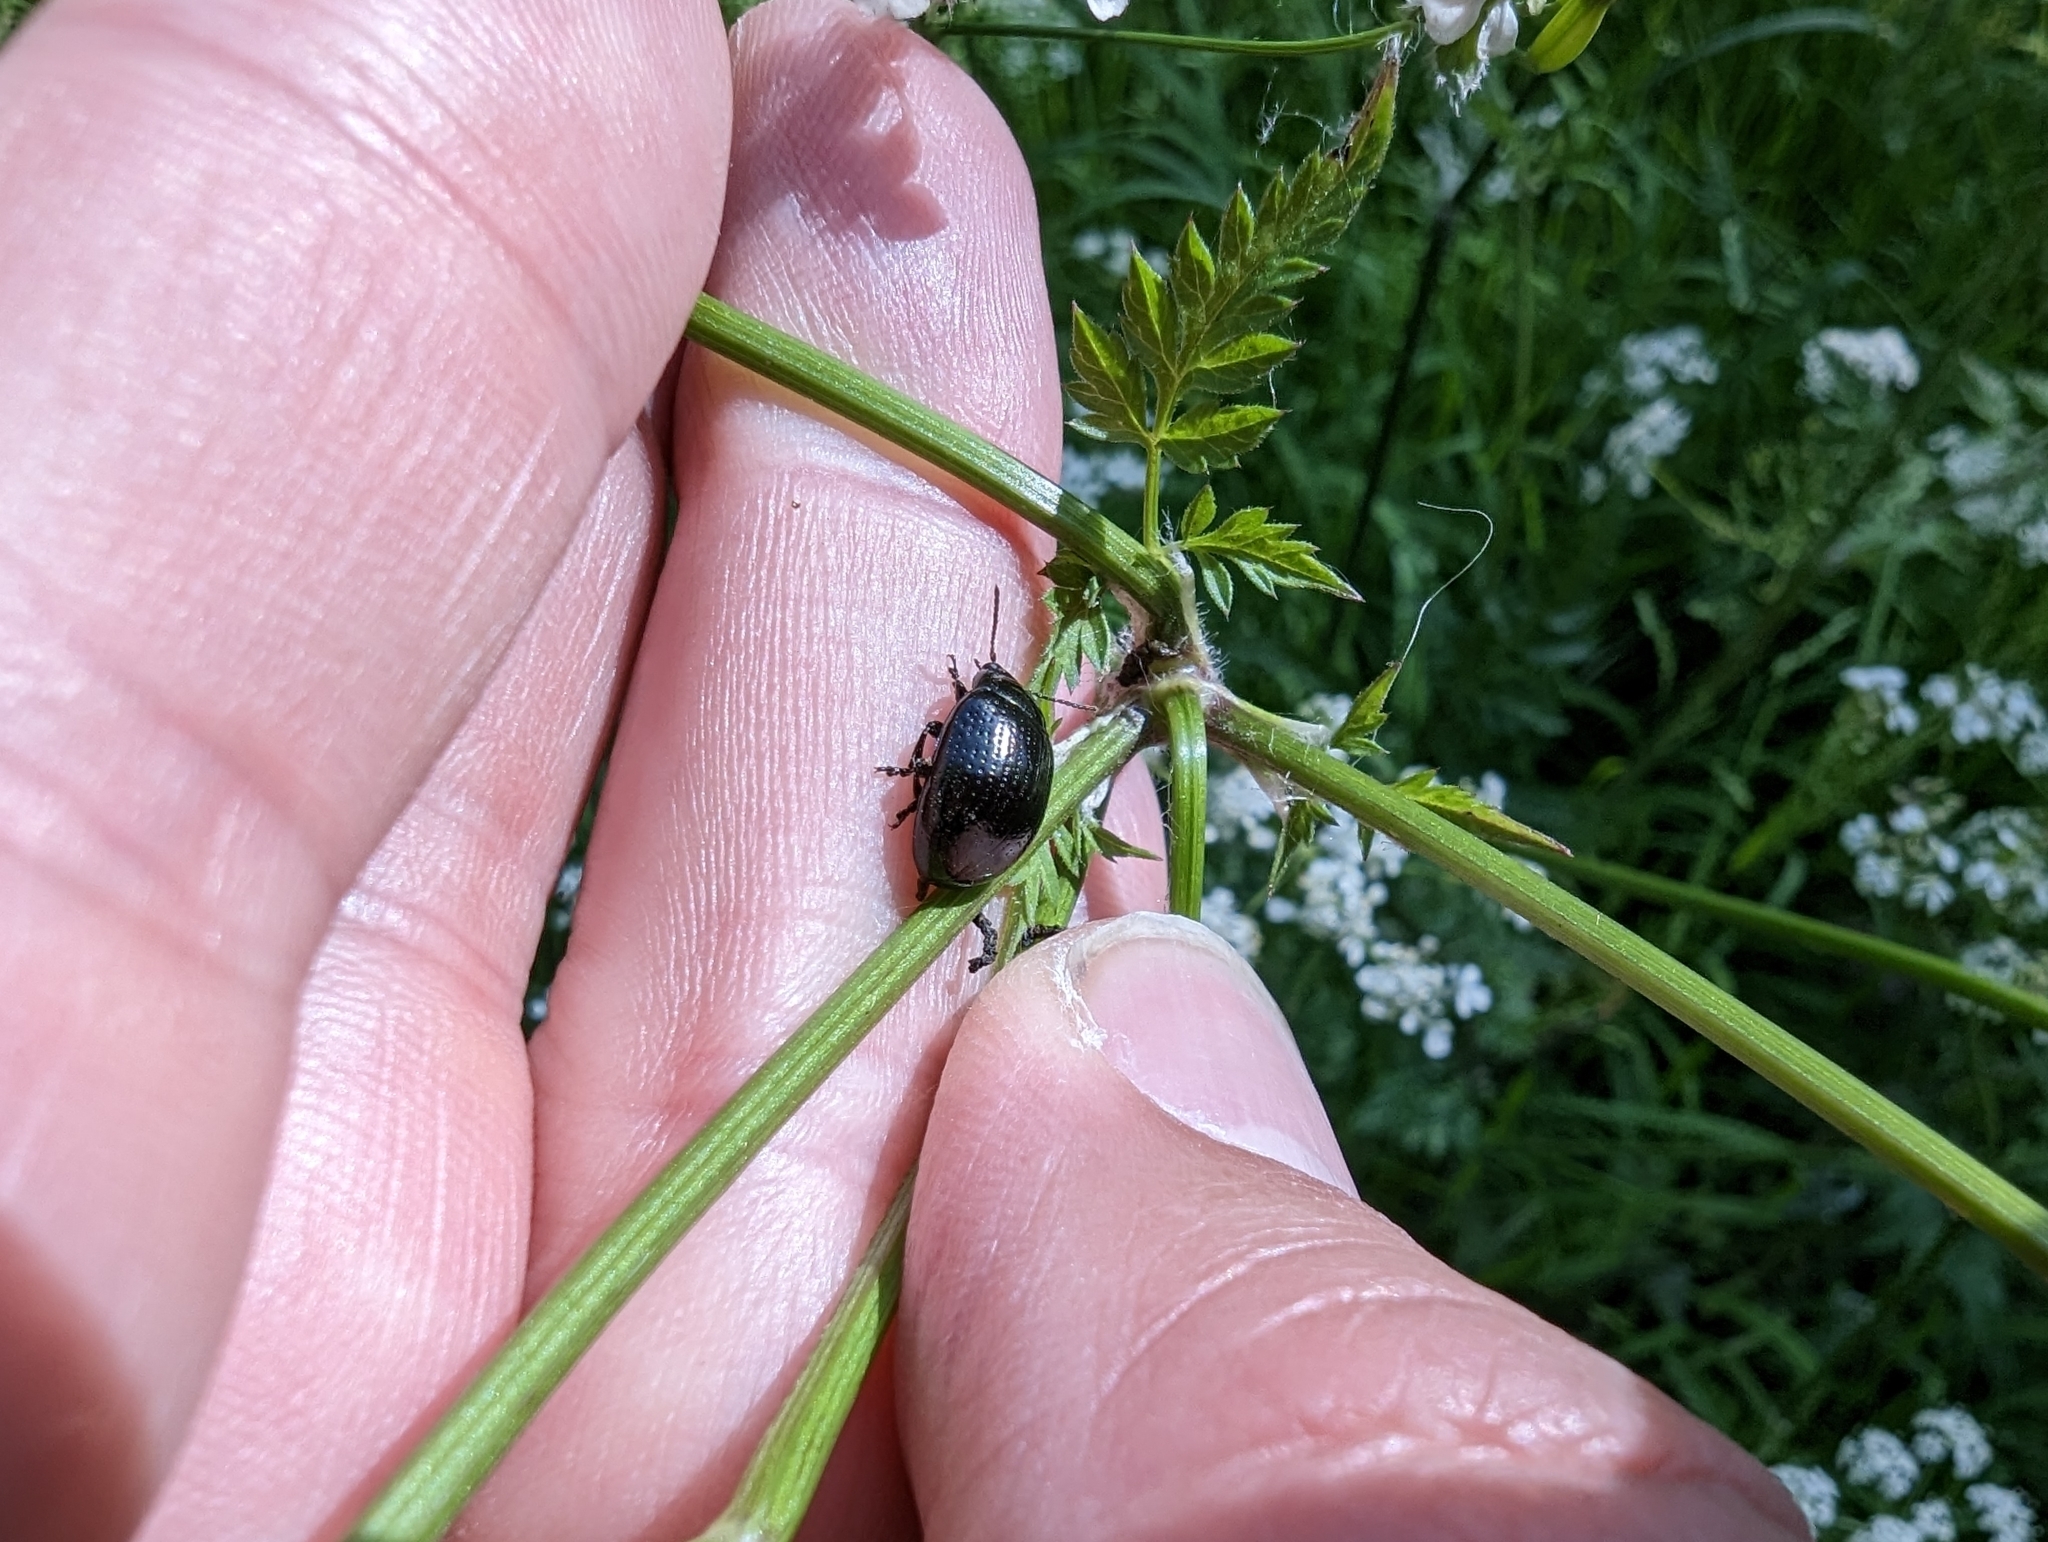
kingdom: Animalia
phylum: Arthropoda
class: Insecta
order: Coleoptera
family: Chrysomelidae
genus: Chrysolina
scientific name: Chrysolina oricalcia
